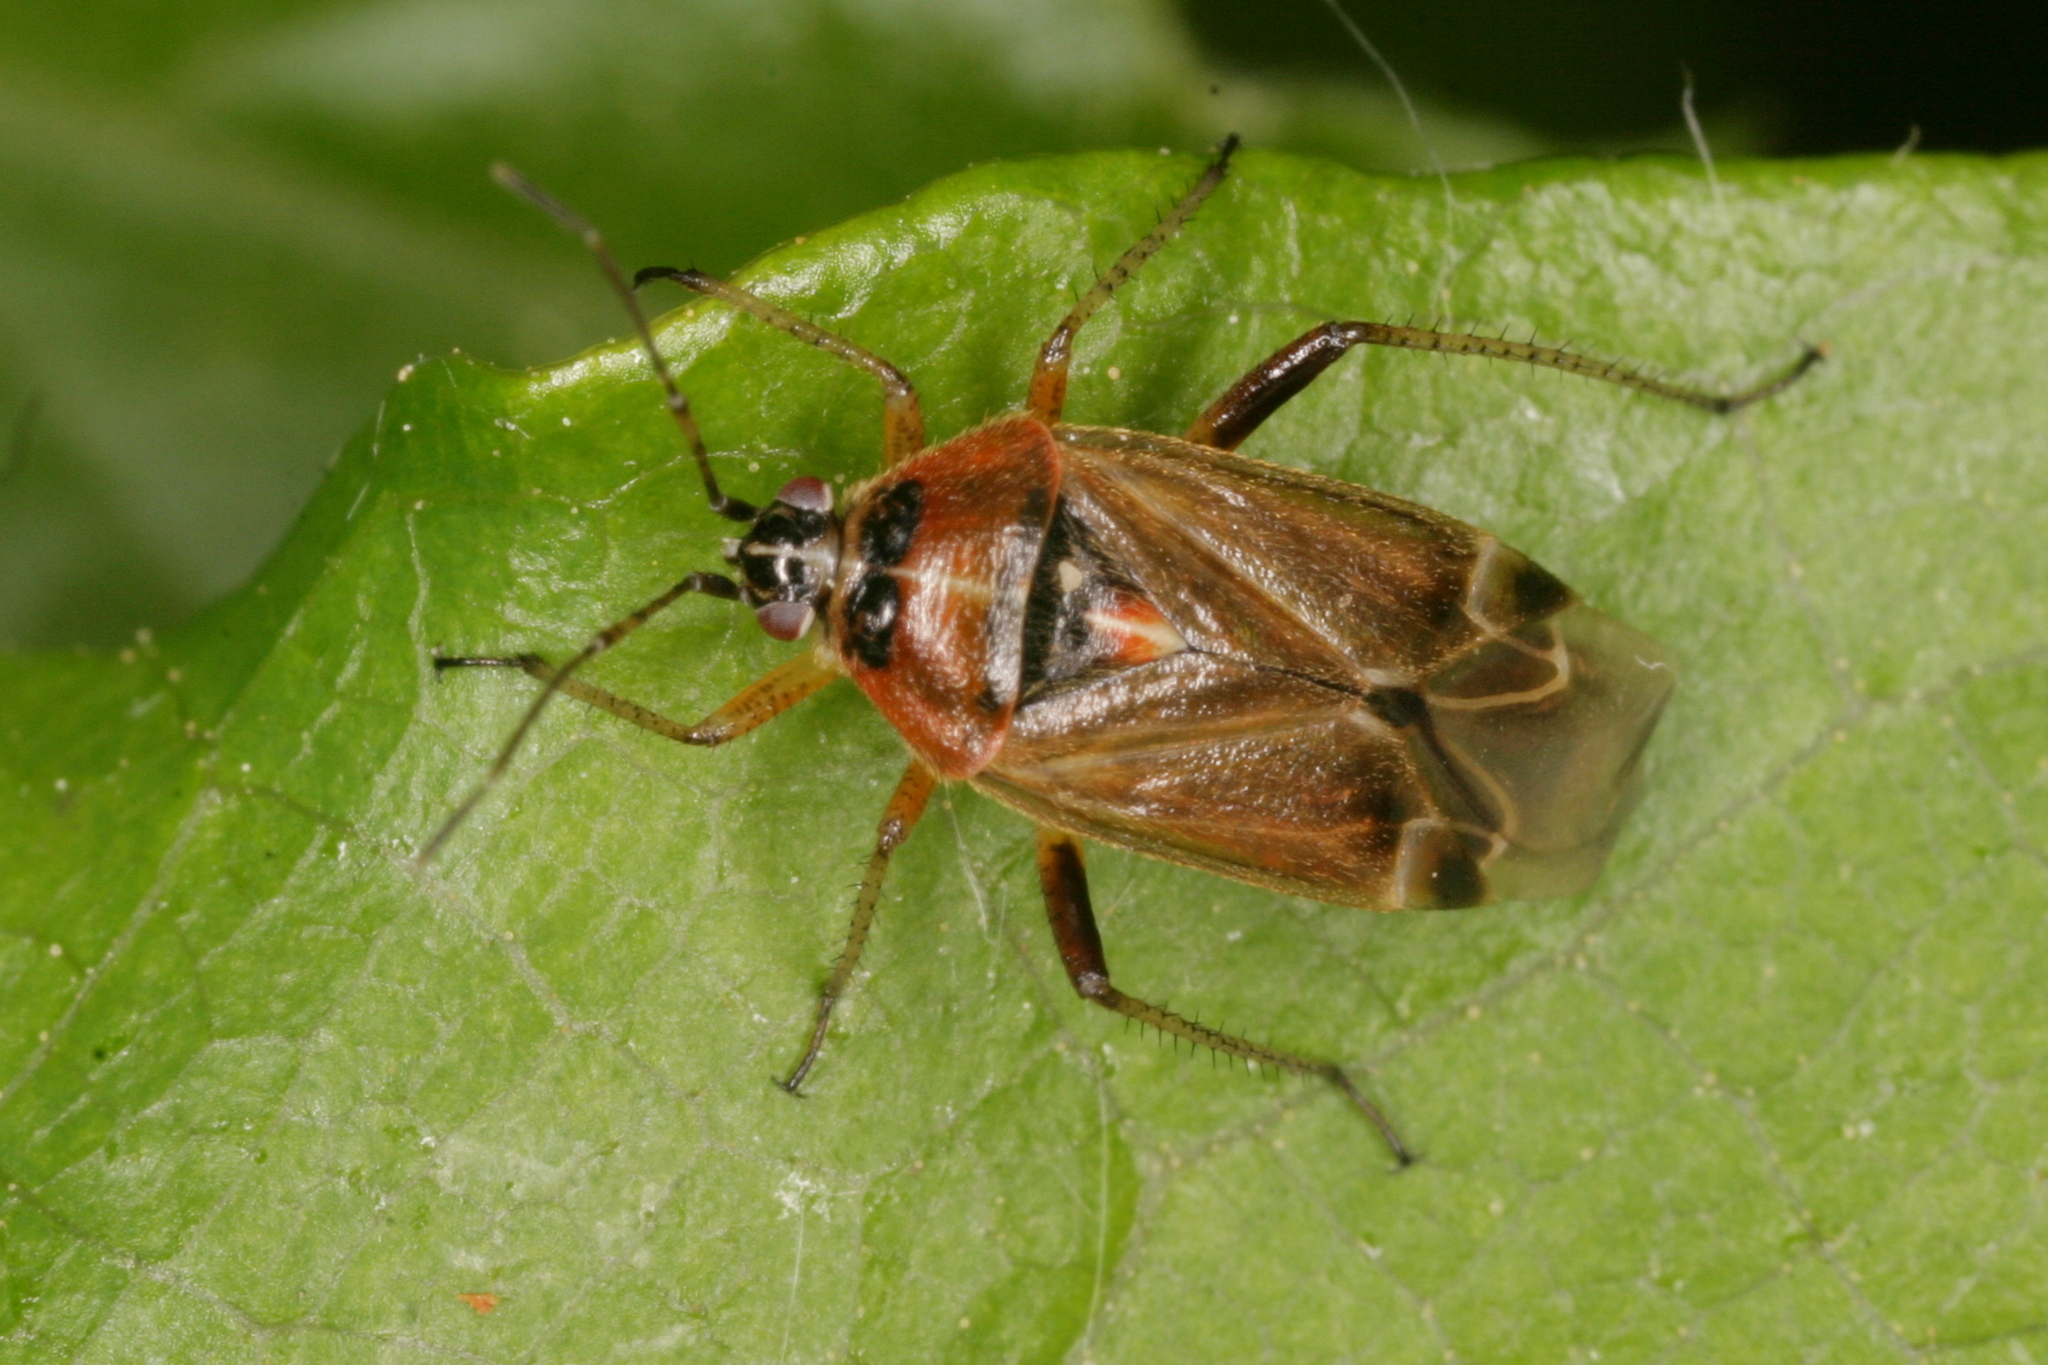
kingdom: Animalia
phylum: Arthropoda
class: Insecta
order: Hemiptera
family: Miridae
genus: Harpocera
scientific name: Harpocera thoracica
